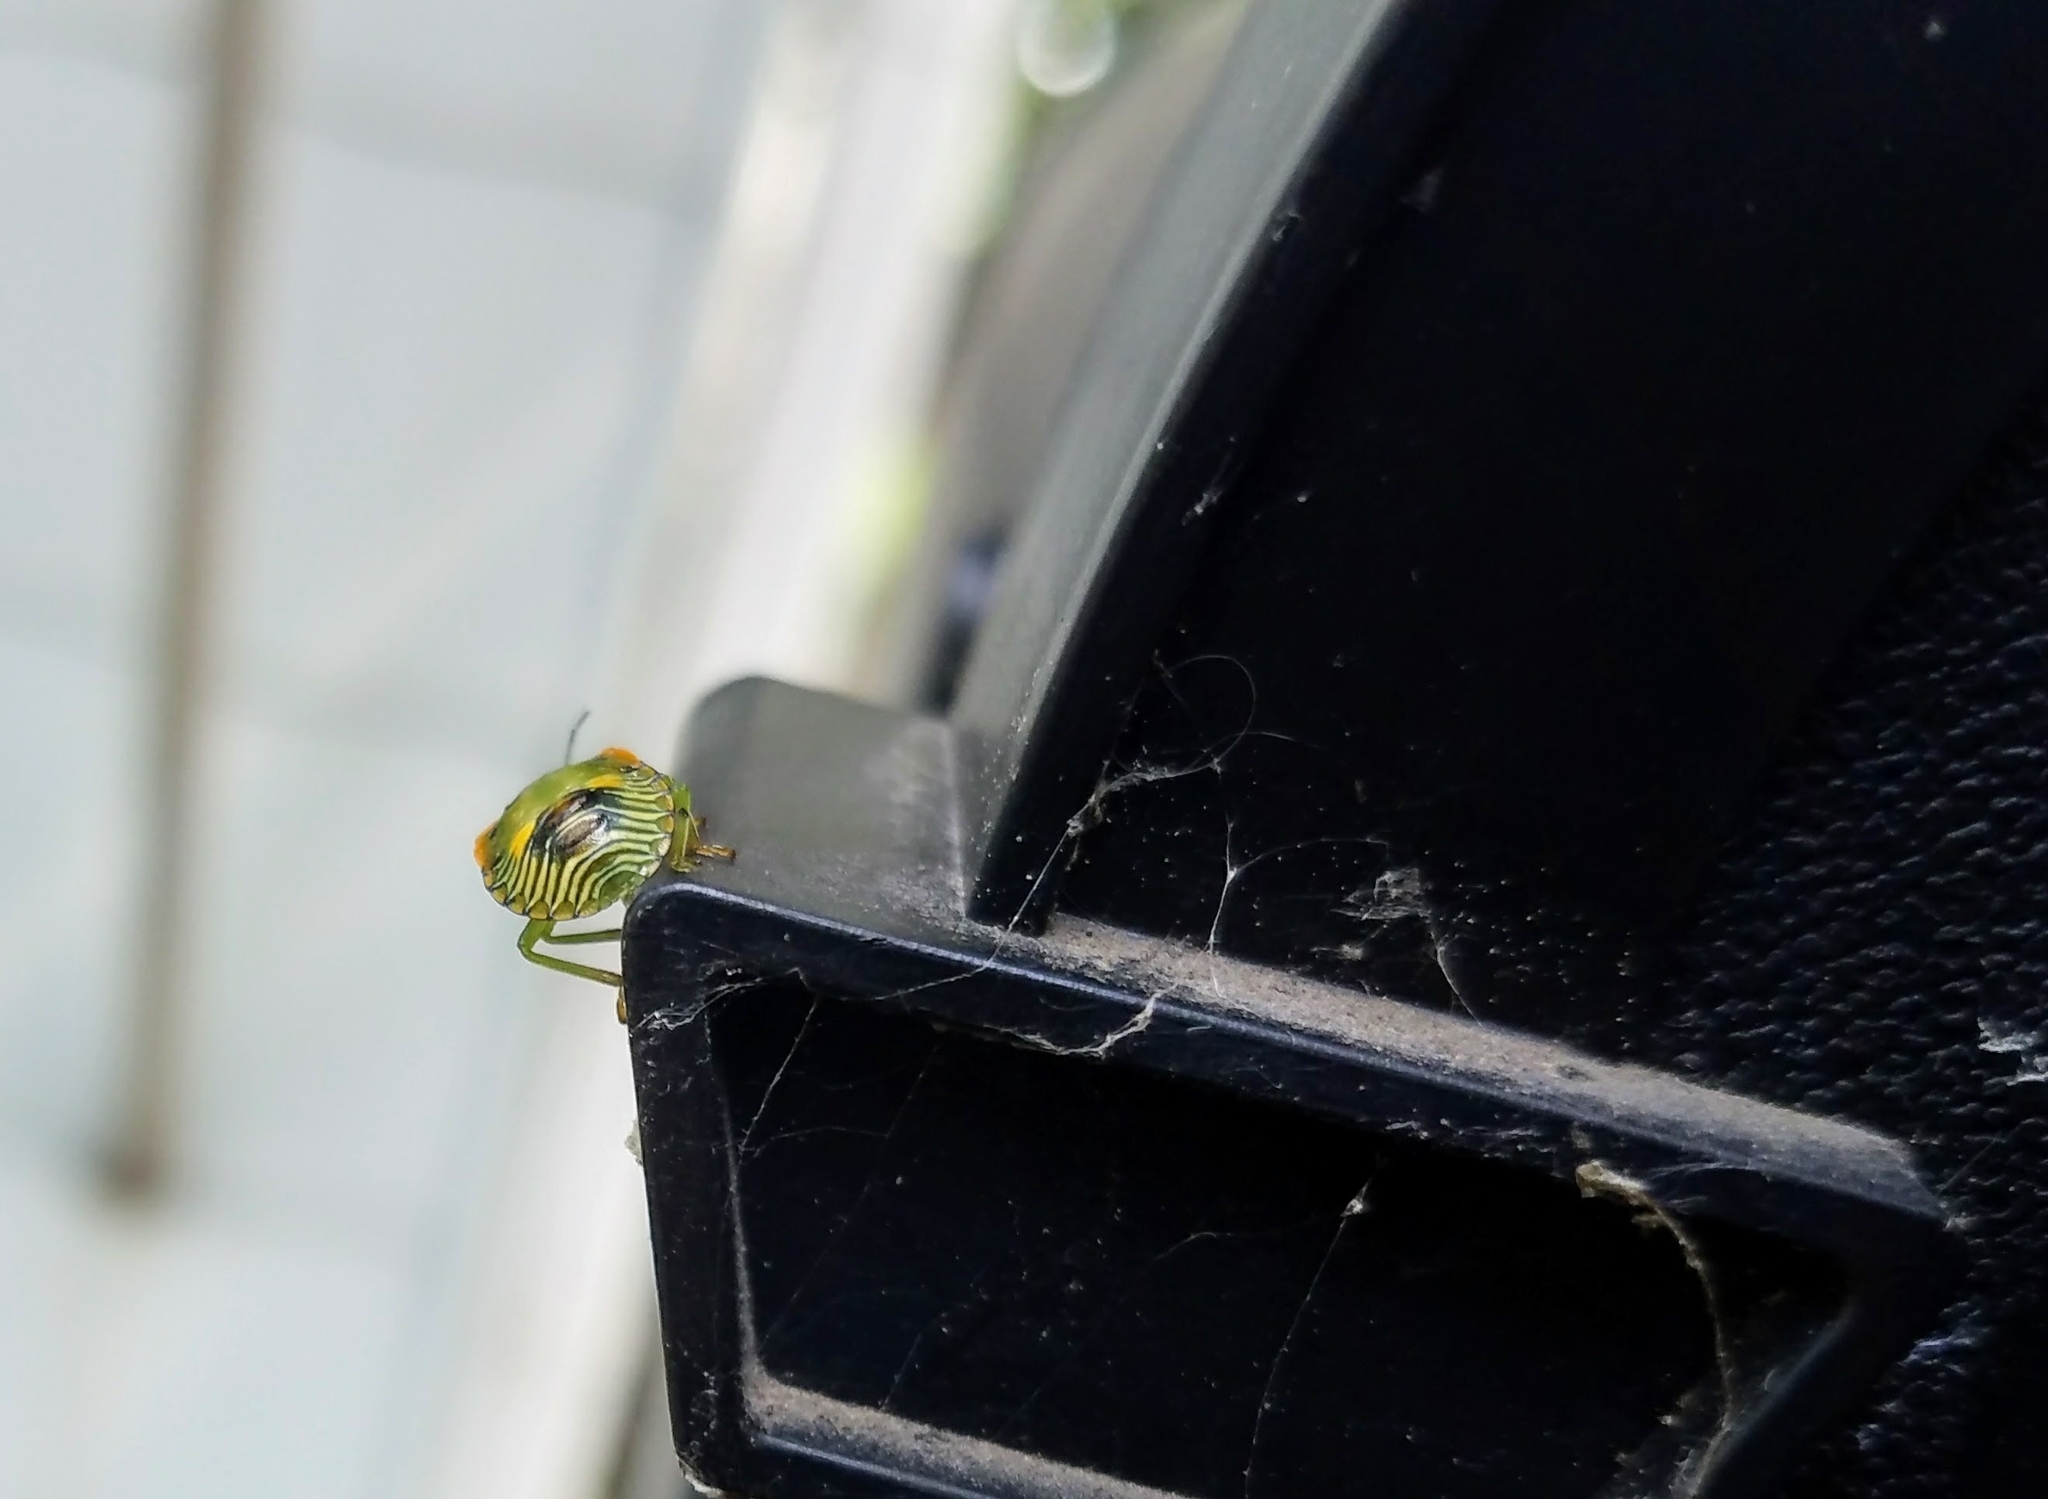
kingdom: Animalia
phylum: Arthropoda
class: Insecta
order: Hemiptera
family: Pentatomidae
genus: Chinavia
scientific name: Chinavia hilaris
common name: Green stink bug
